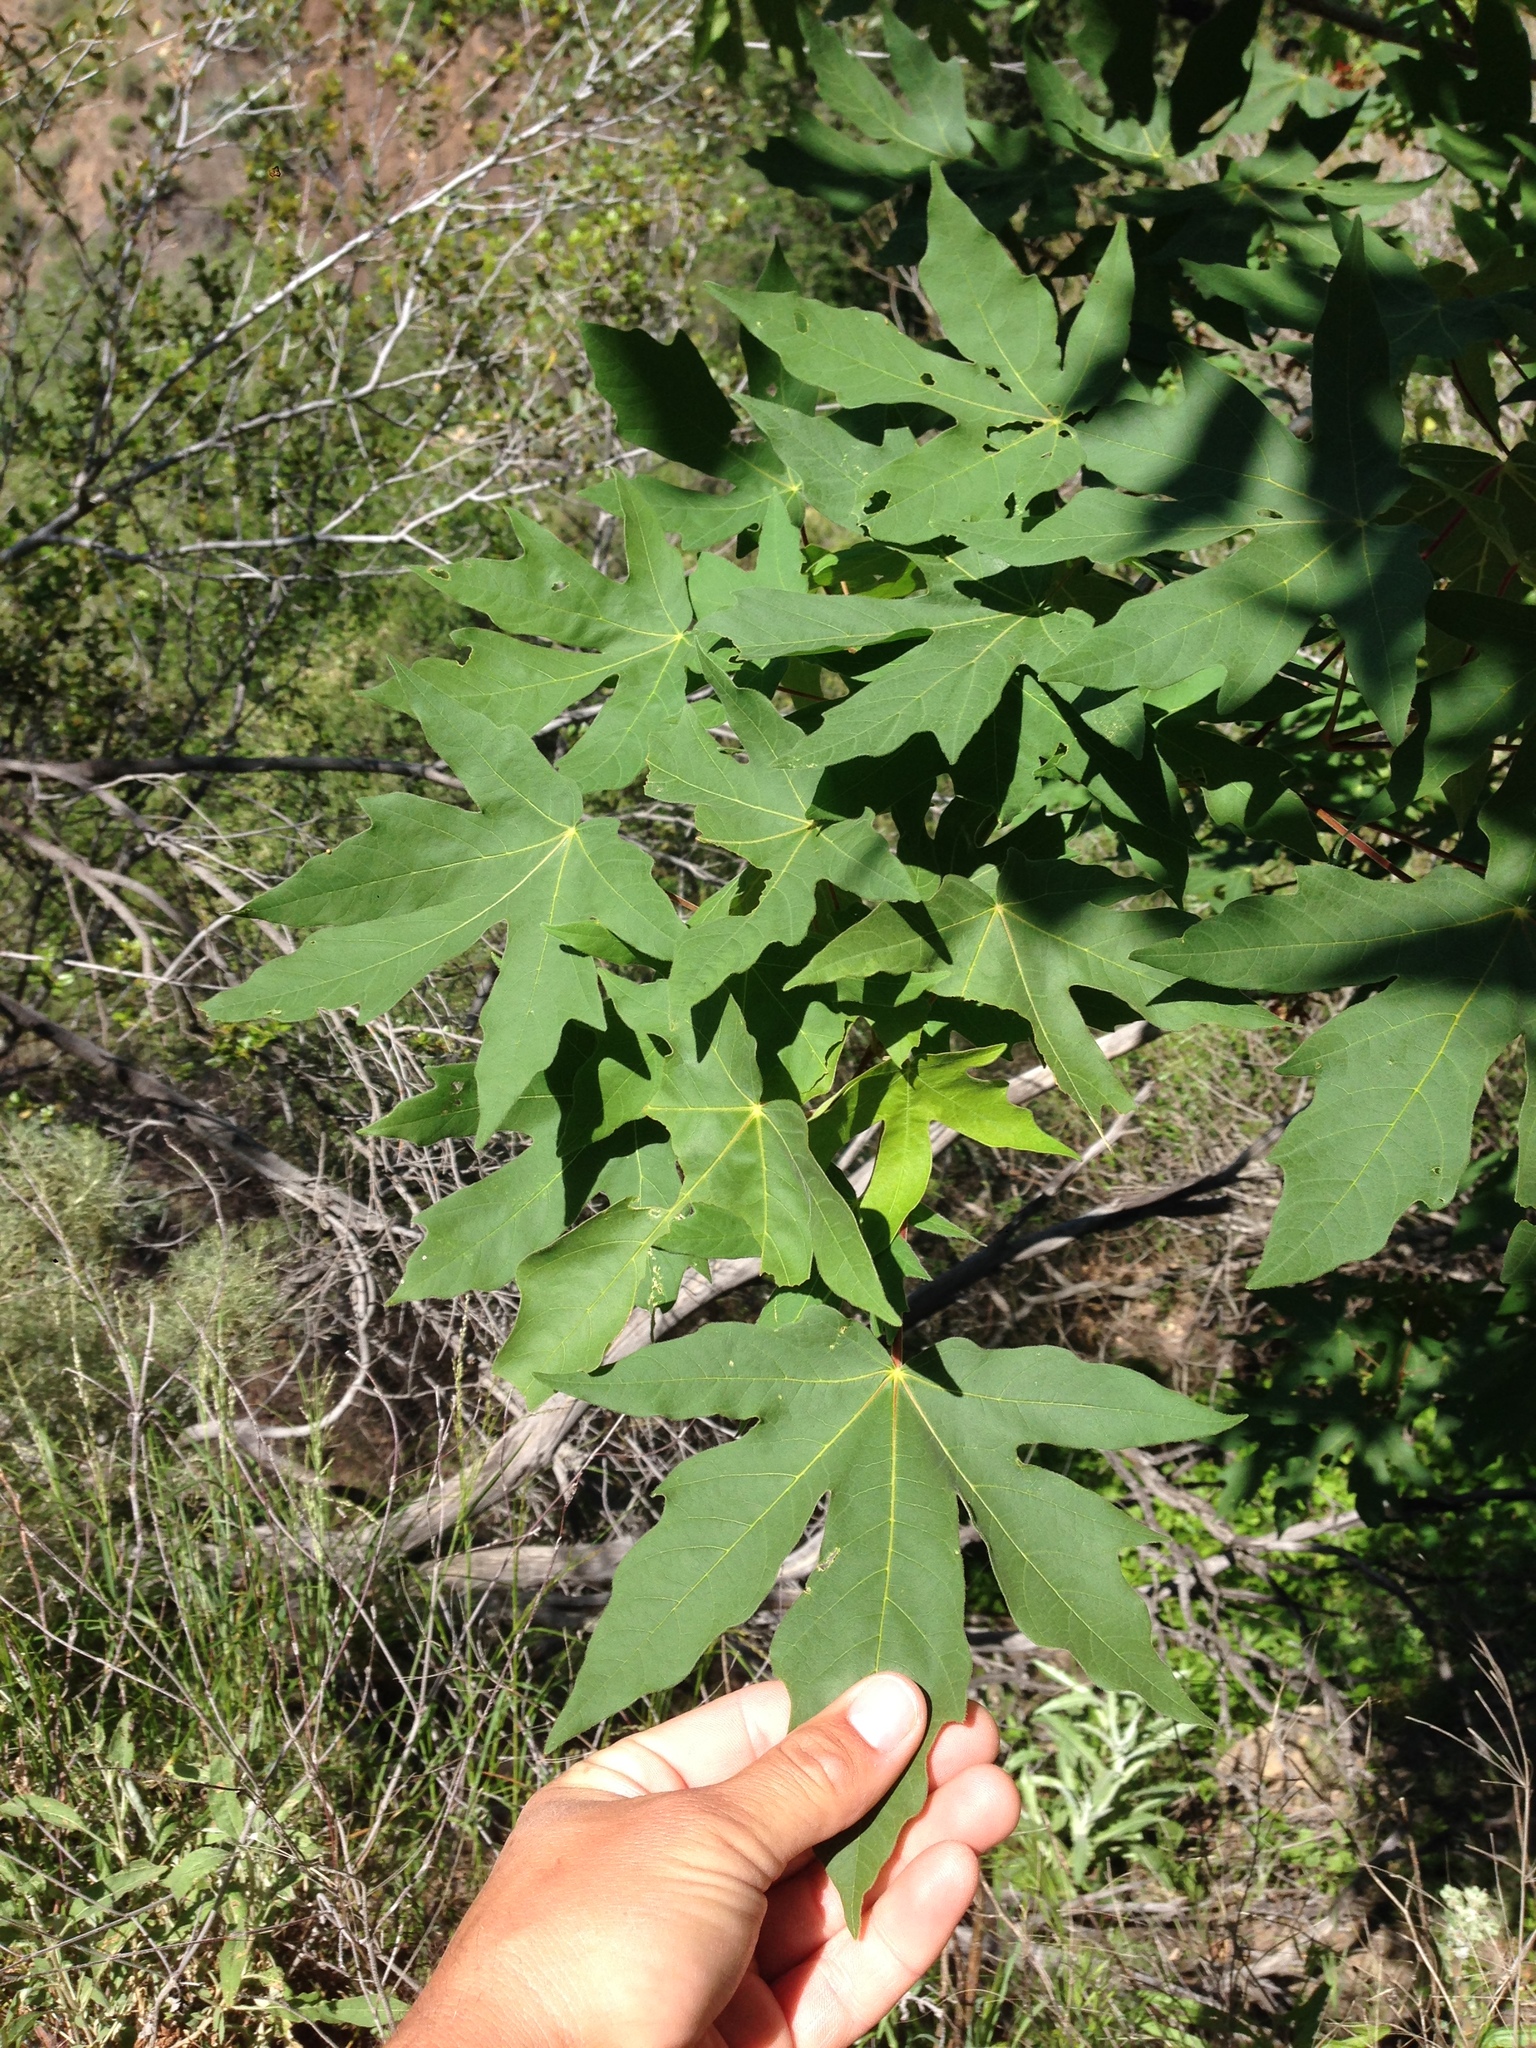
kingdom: Plantae
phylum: Tracheophyta
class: Magnoliopsida
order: Sapindales
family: Sapindaceae
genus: Acer
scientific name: Acer macrophyllum
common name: Oregon maple
